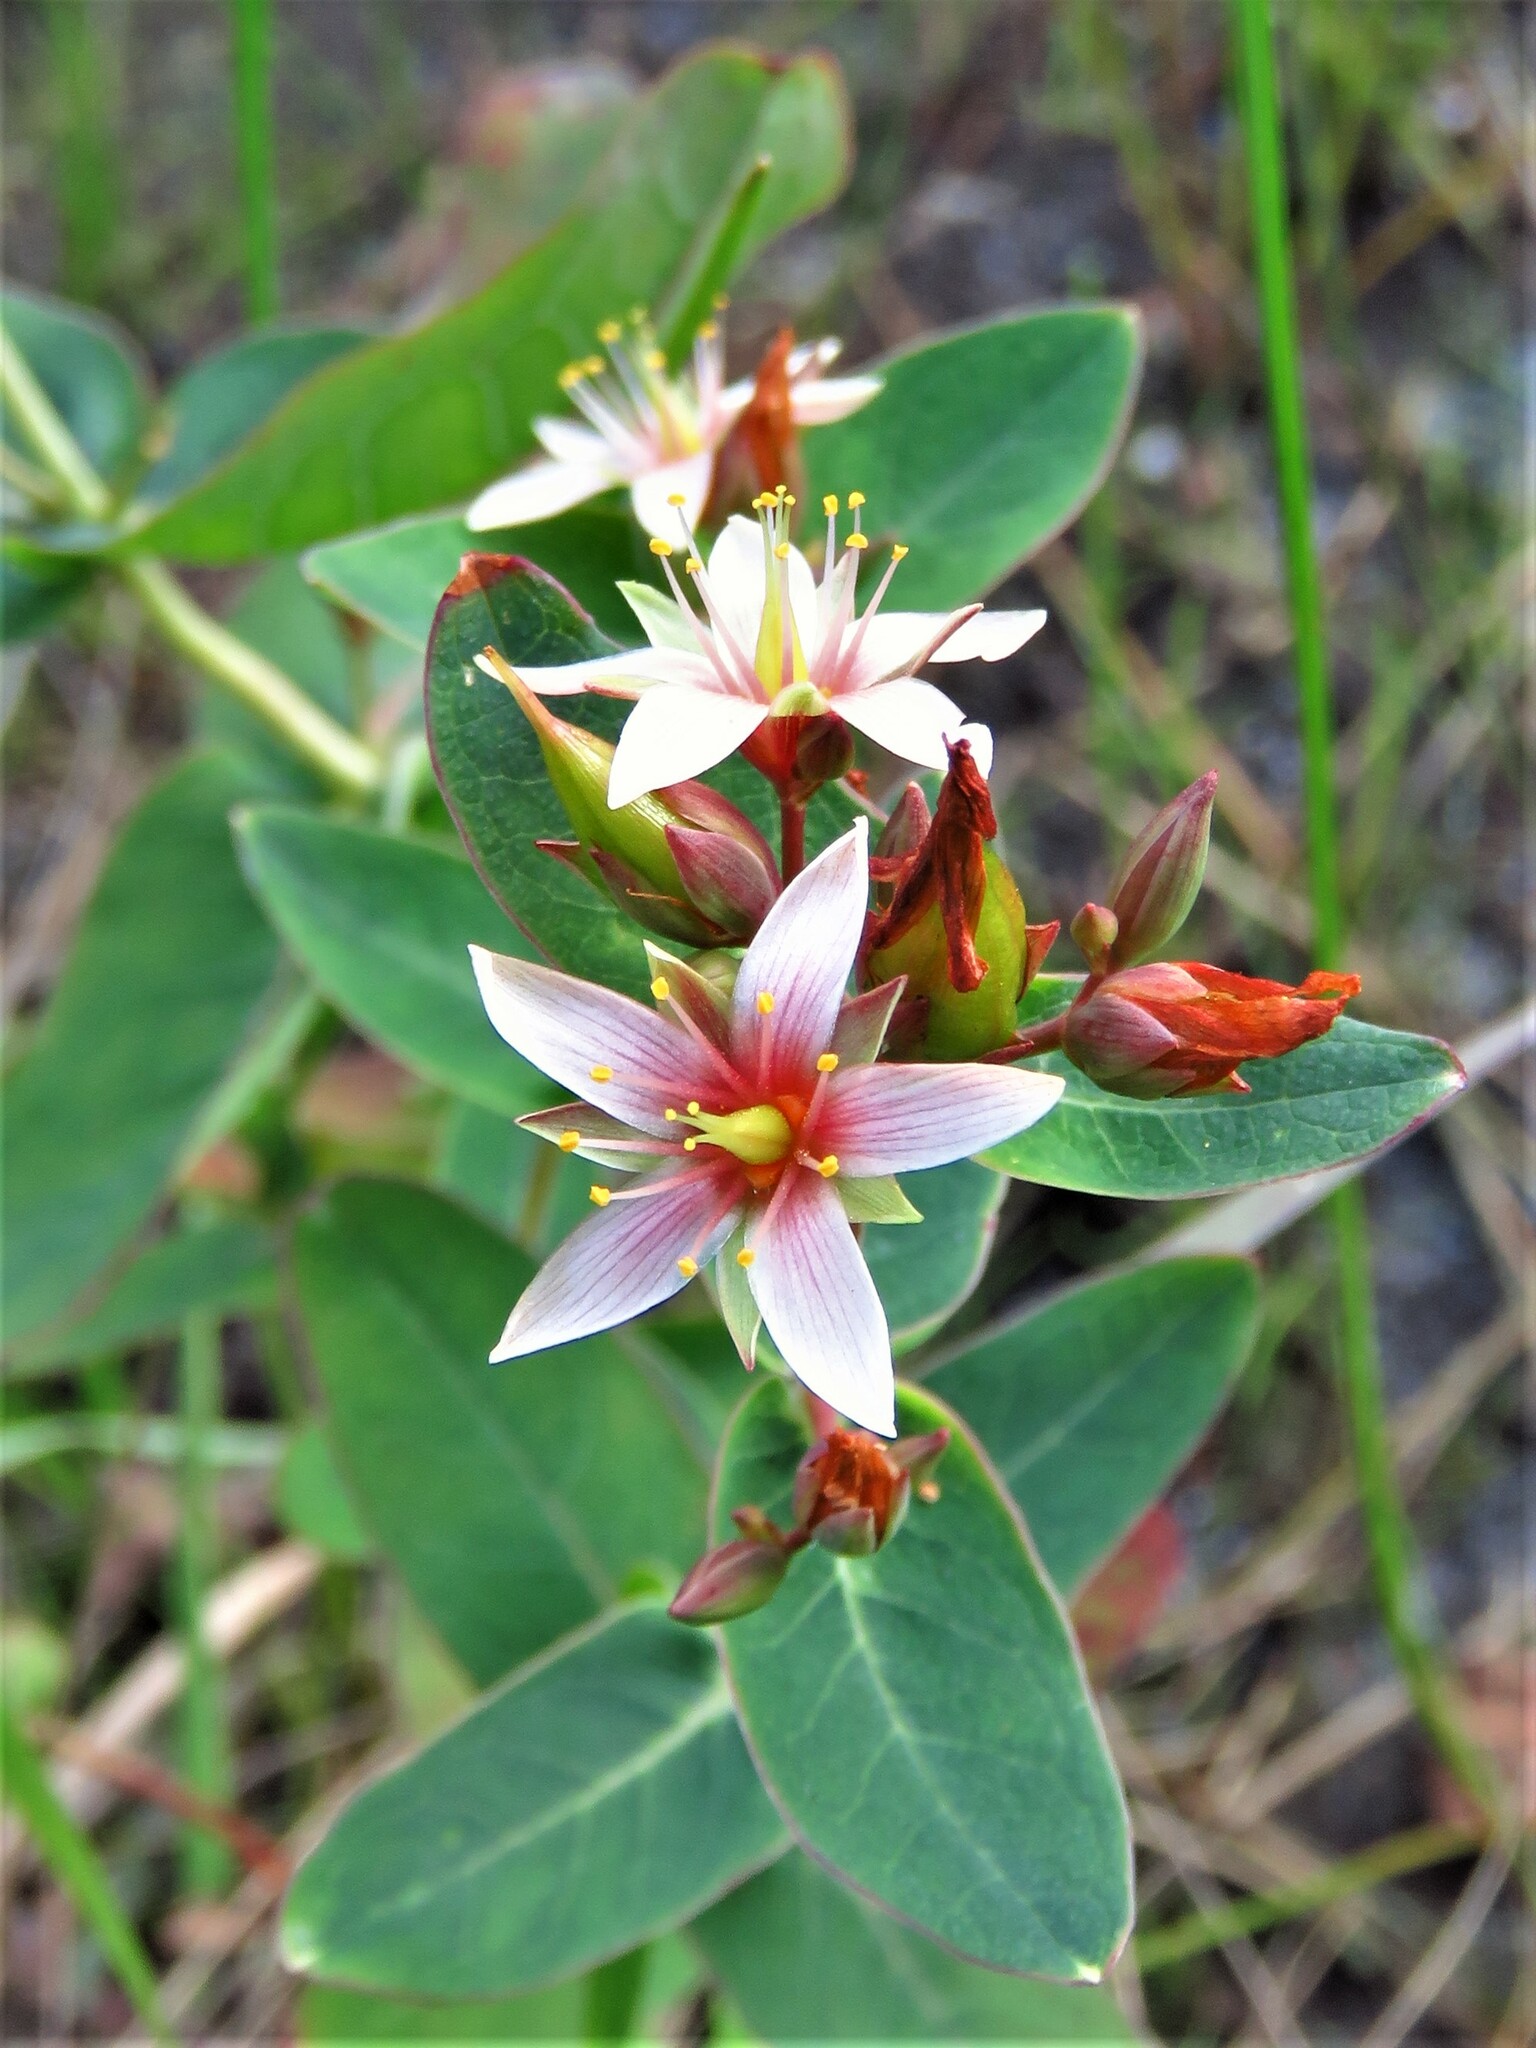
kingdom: Plantae
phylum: Tracheophyta
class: Magnoliopsida
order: Malpighiales
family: Hypericaceae
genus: Triadenum
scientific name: Triadenum virginicum
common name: Marsh st. john's-wort
